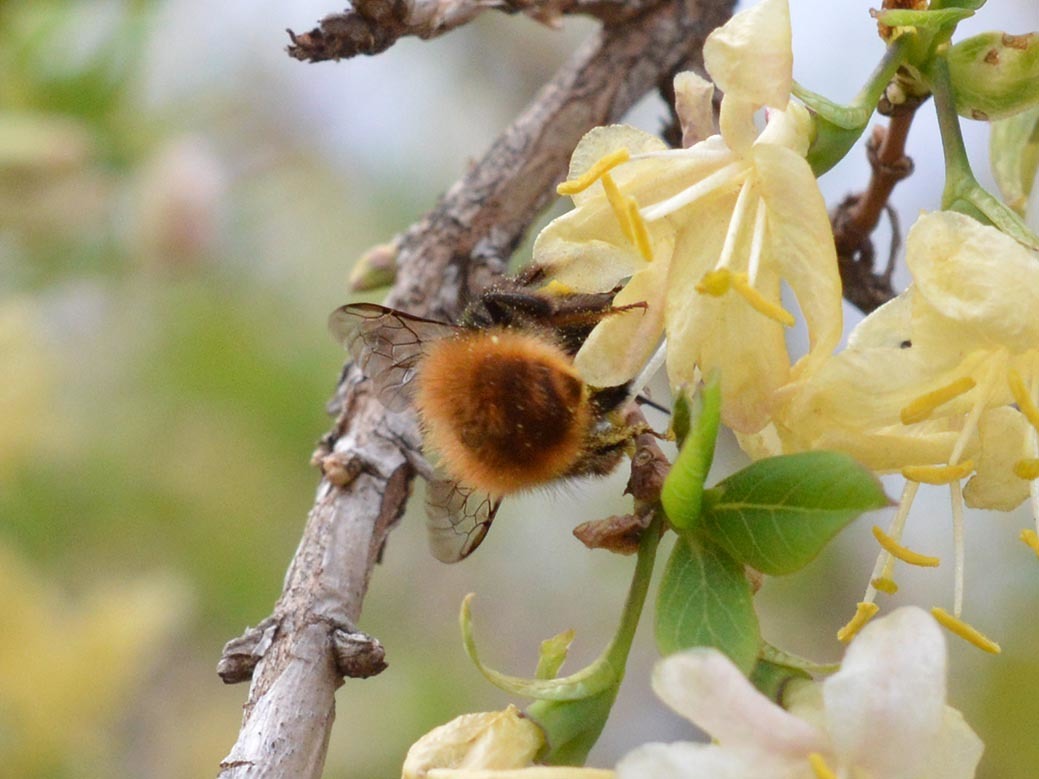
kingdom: Animalia
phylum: Arthropoda
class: Insecta
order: Hymenoptera
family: Megachilidae
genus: Osmia
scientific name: Osmia cornuta
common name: Mason bee
